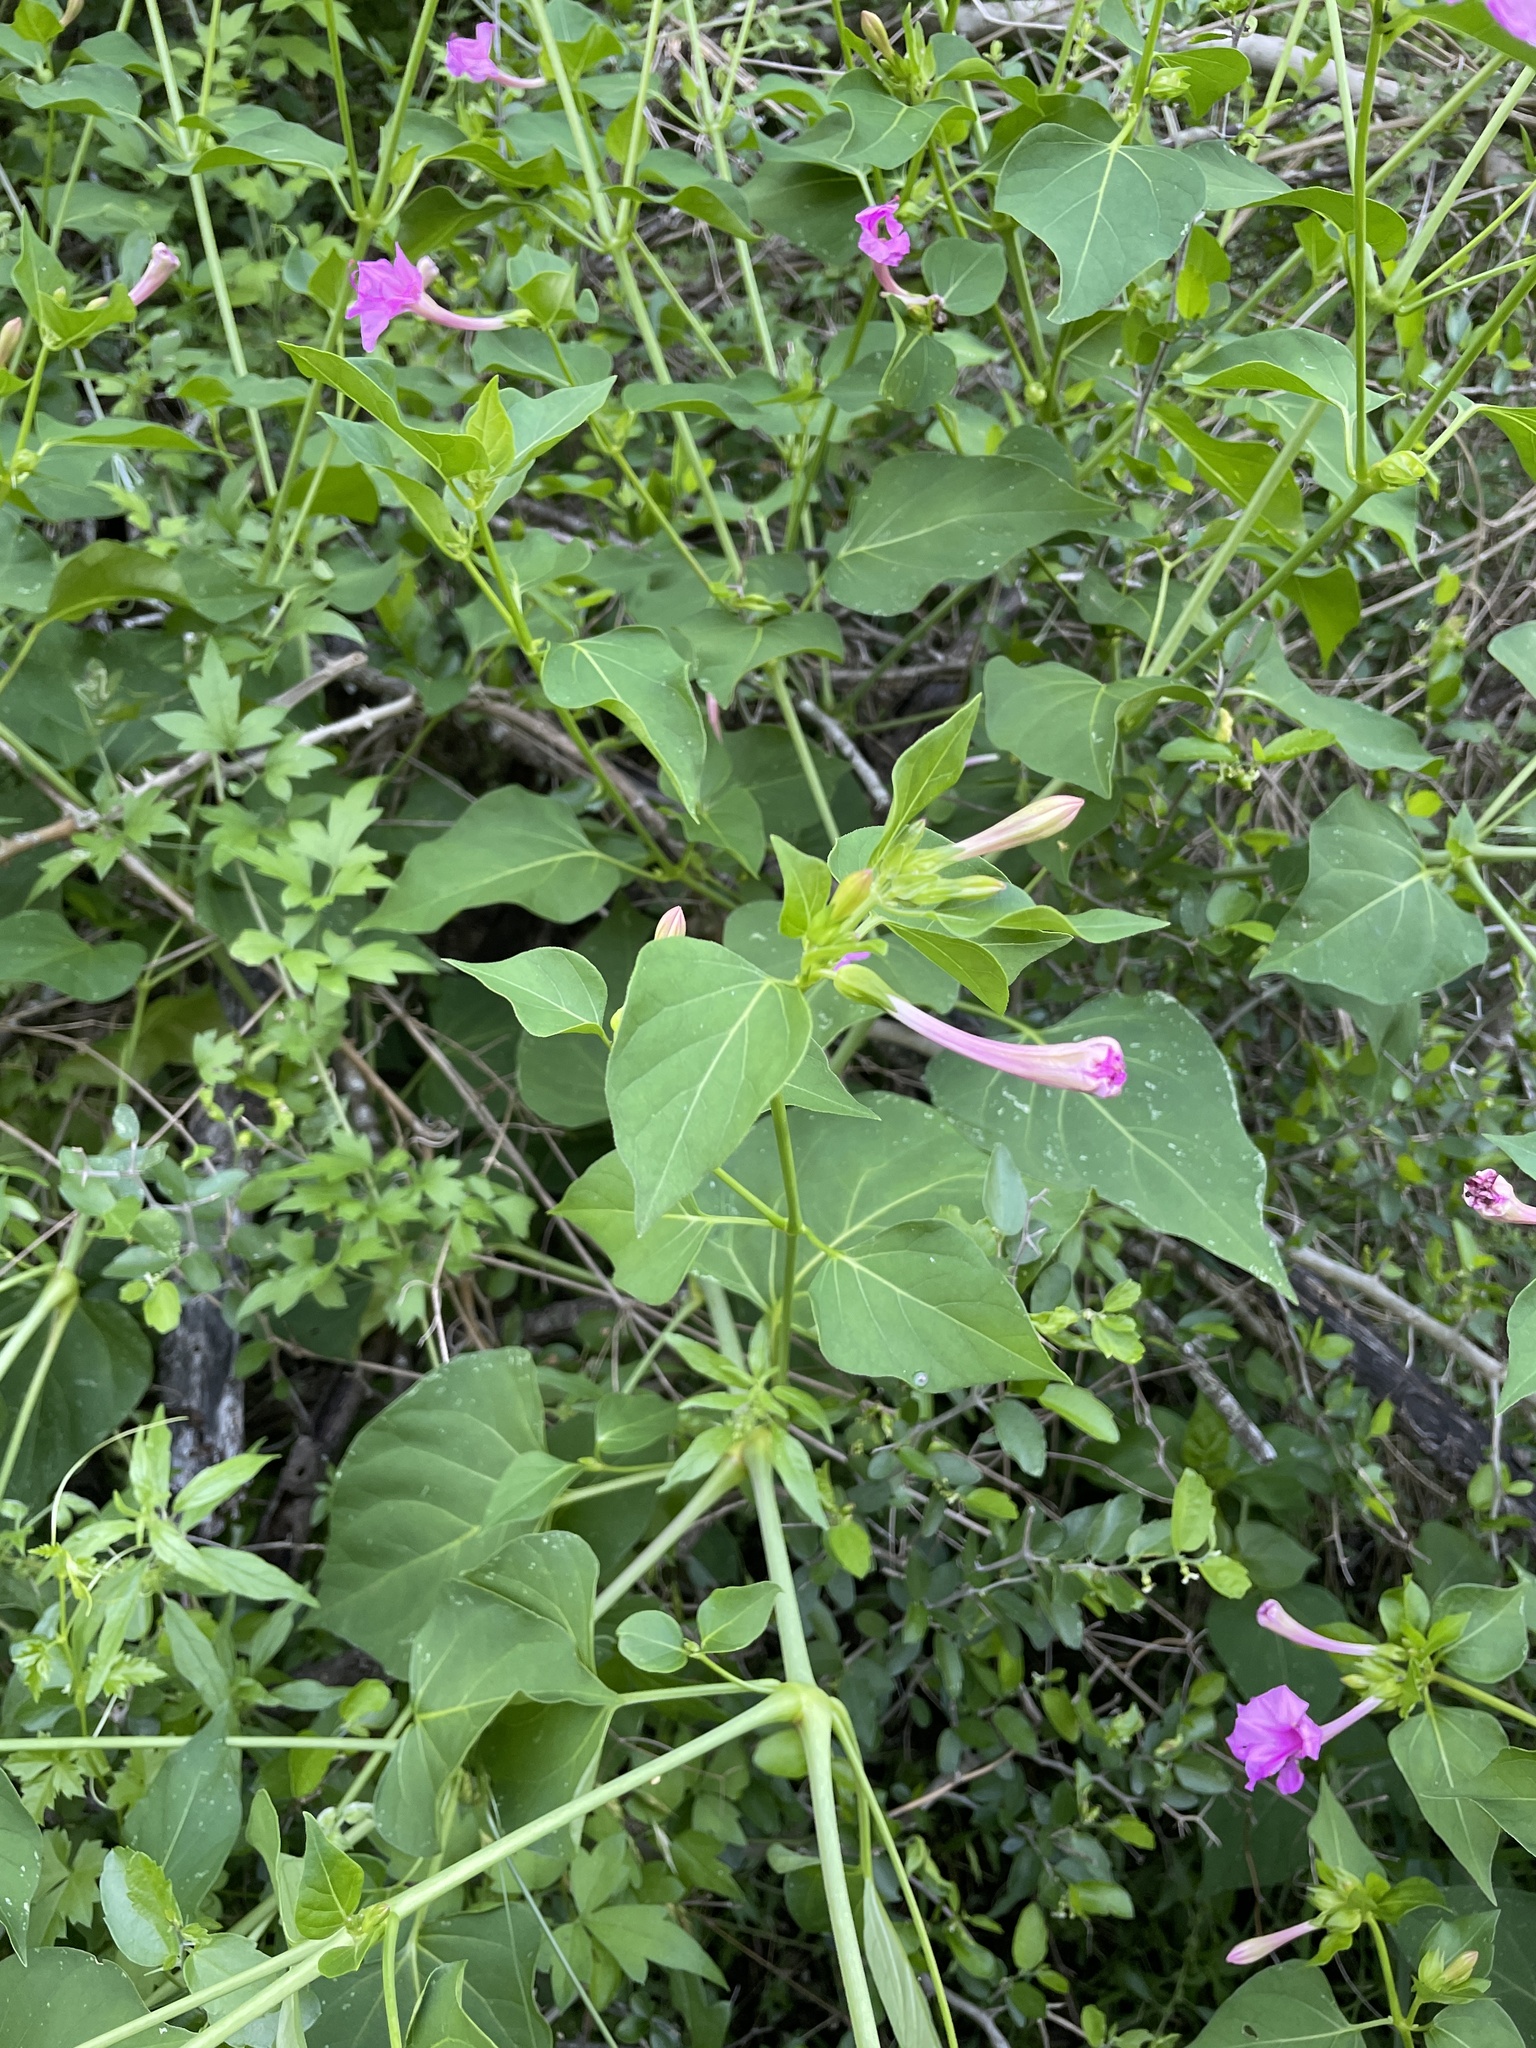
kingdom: Plantae
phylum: Tracheophyta
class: Magnoliopsida
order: Caryophyllales
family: Nyctaginaceae
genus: Mirabilis
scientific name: Mirabilis jalapa
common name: Marvel-of-peru
